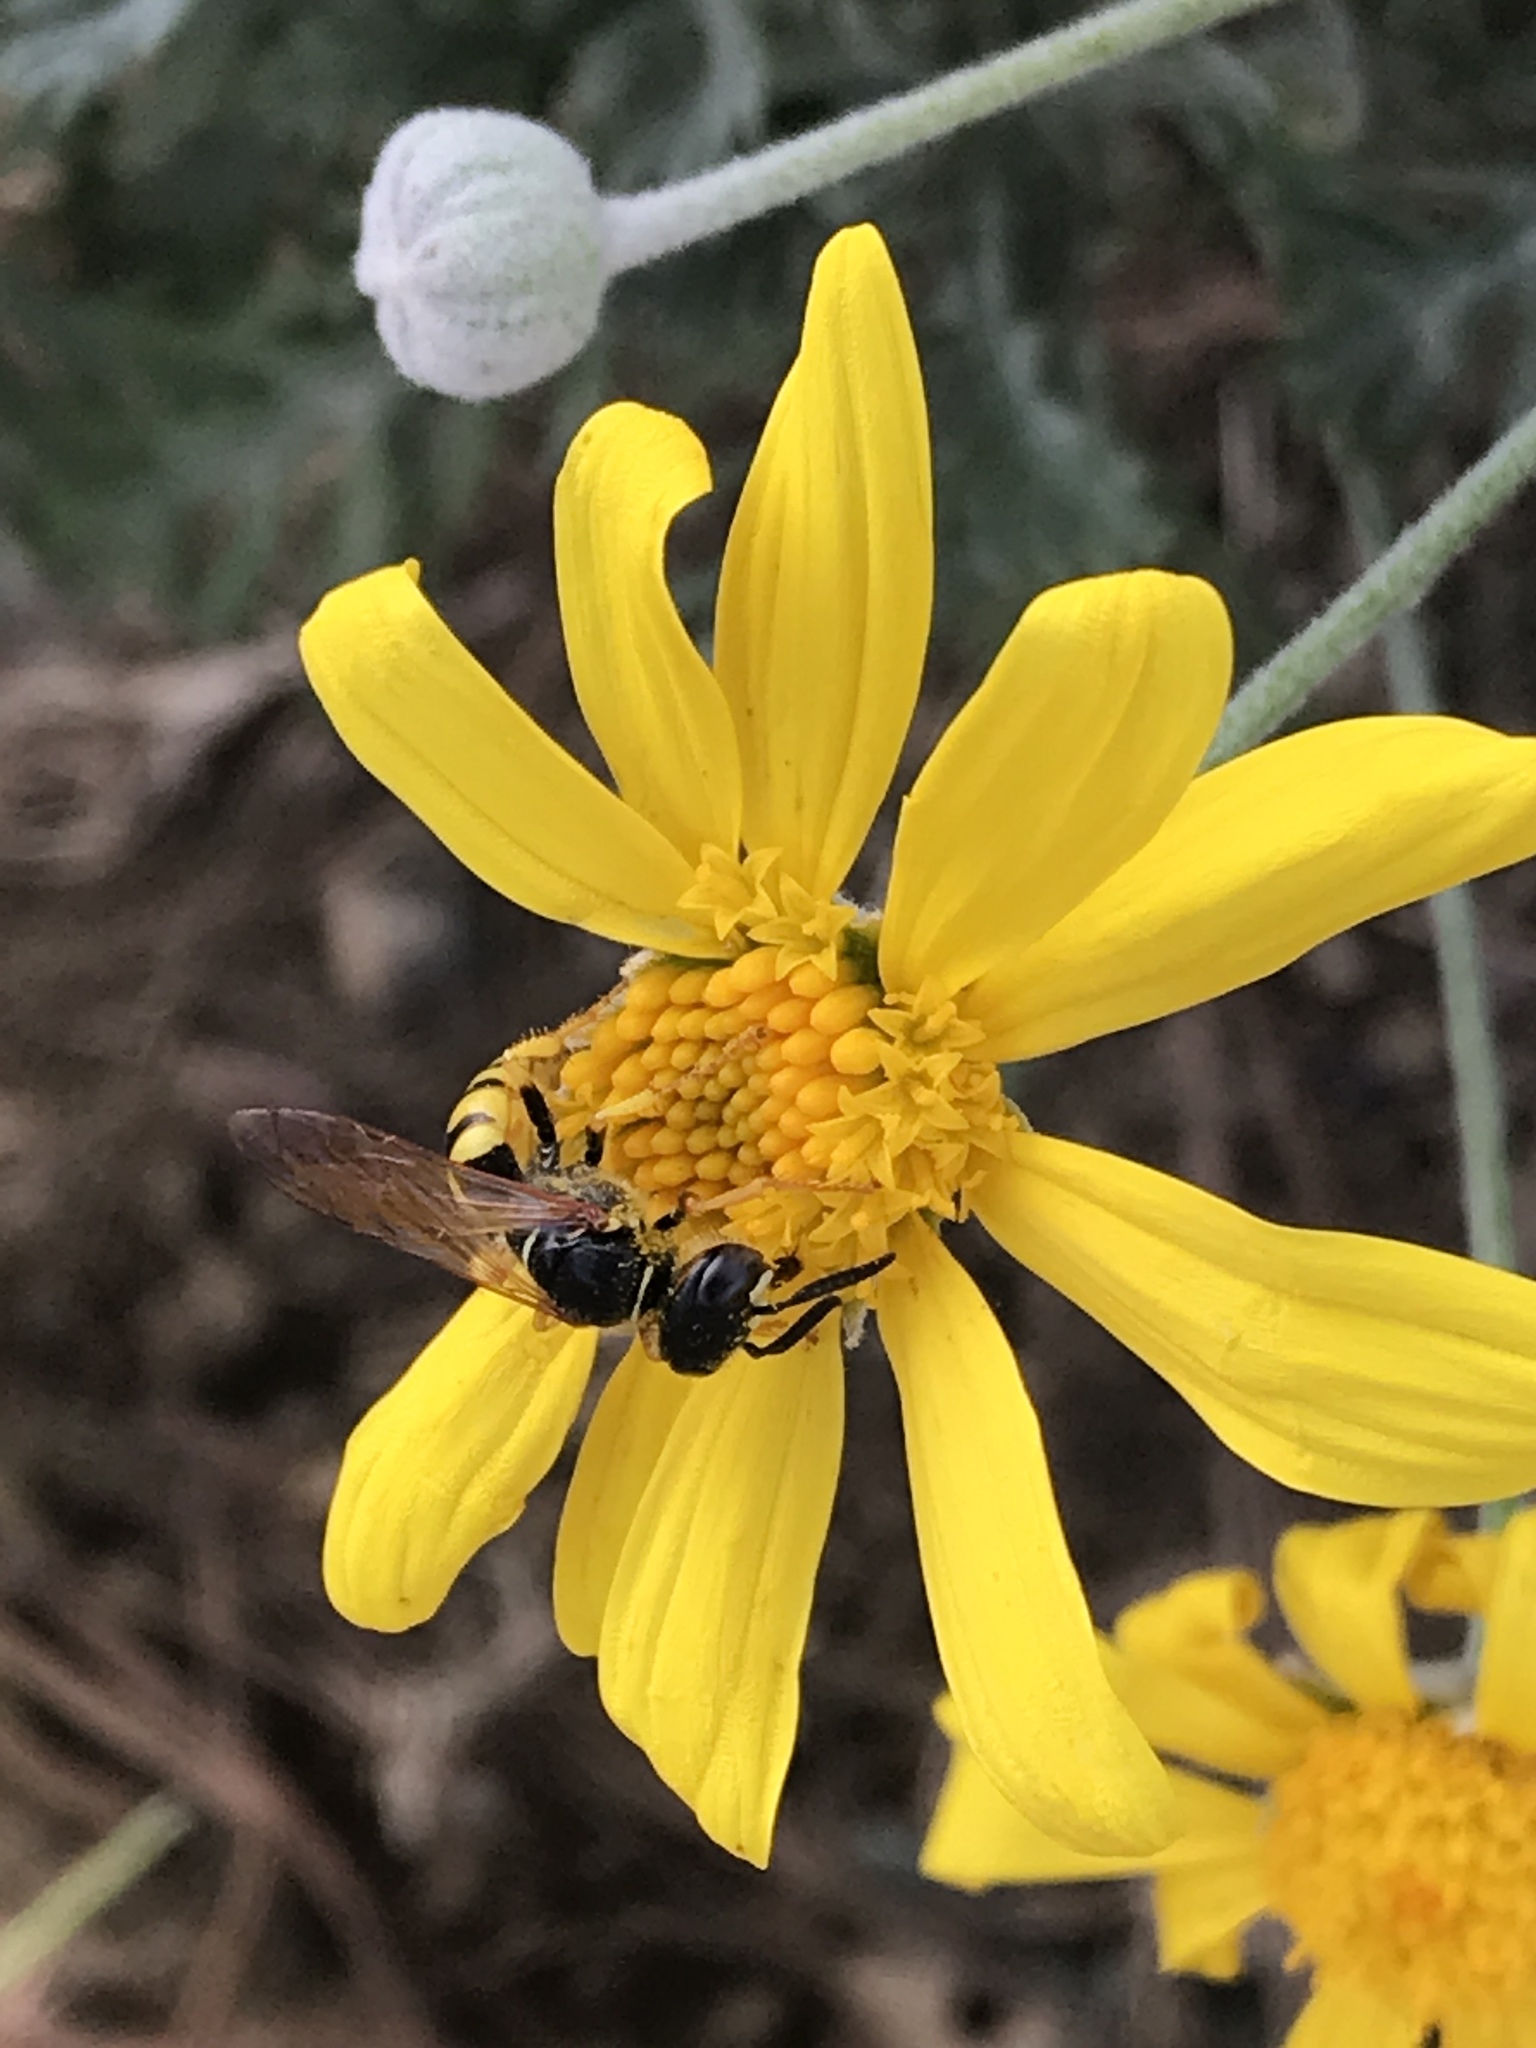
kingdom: Animalia
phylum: Arthropoda
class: Insecta
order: Hymenoptera
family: Crabronidae
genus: Philanthus
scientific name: Philanthus triangulum
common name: Bee wolf
